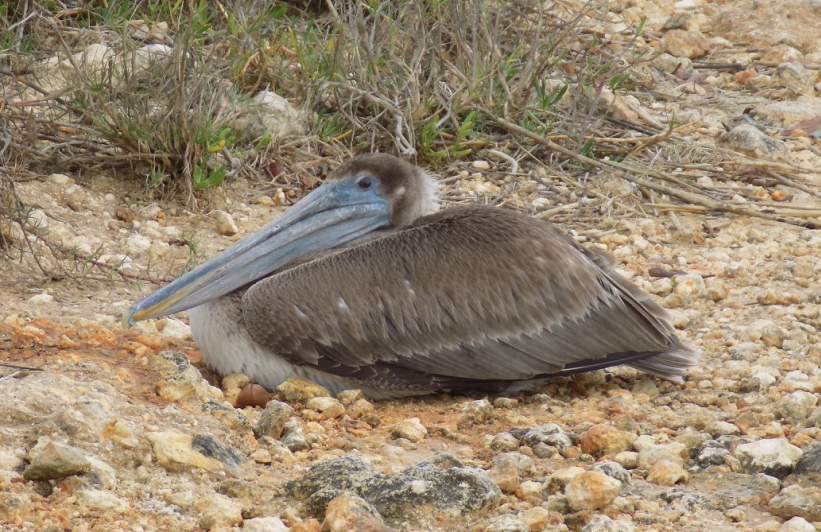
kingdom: Animalia
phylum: Chordata
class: Aves
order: Pelecaniformes
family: Pelecanidae
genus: Pelecanus
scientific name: Pelecanus occidentalis
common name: Brown pelican
